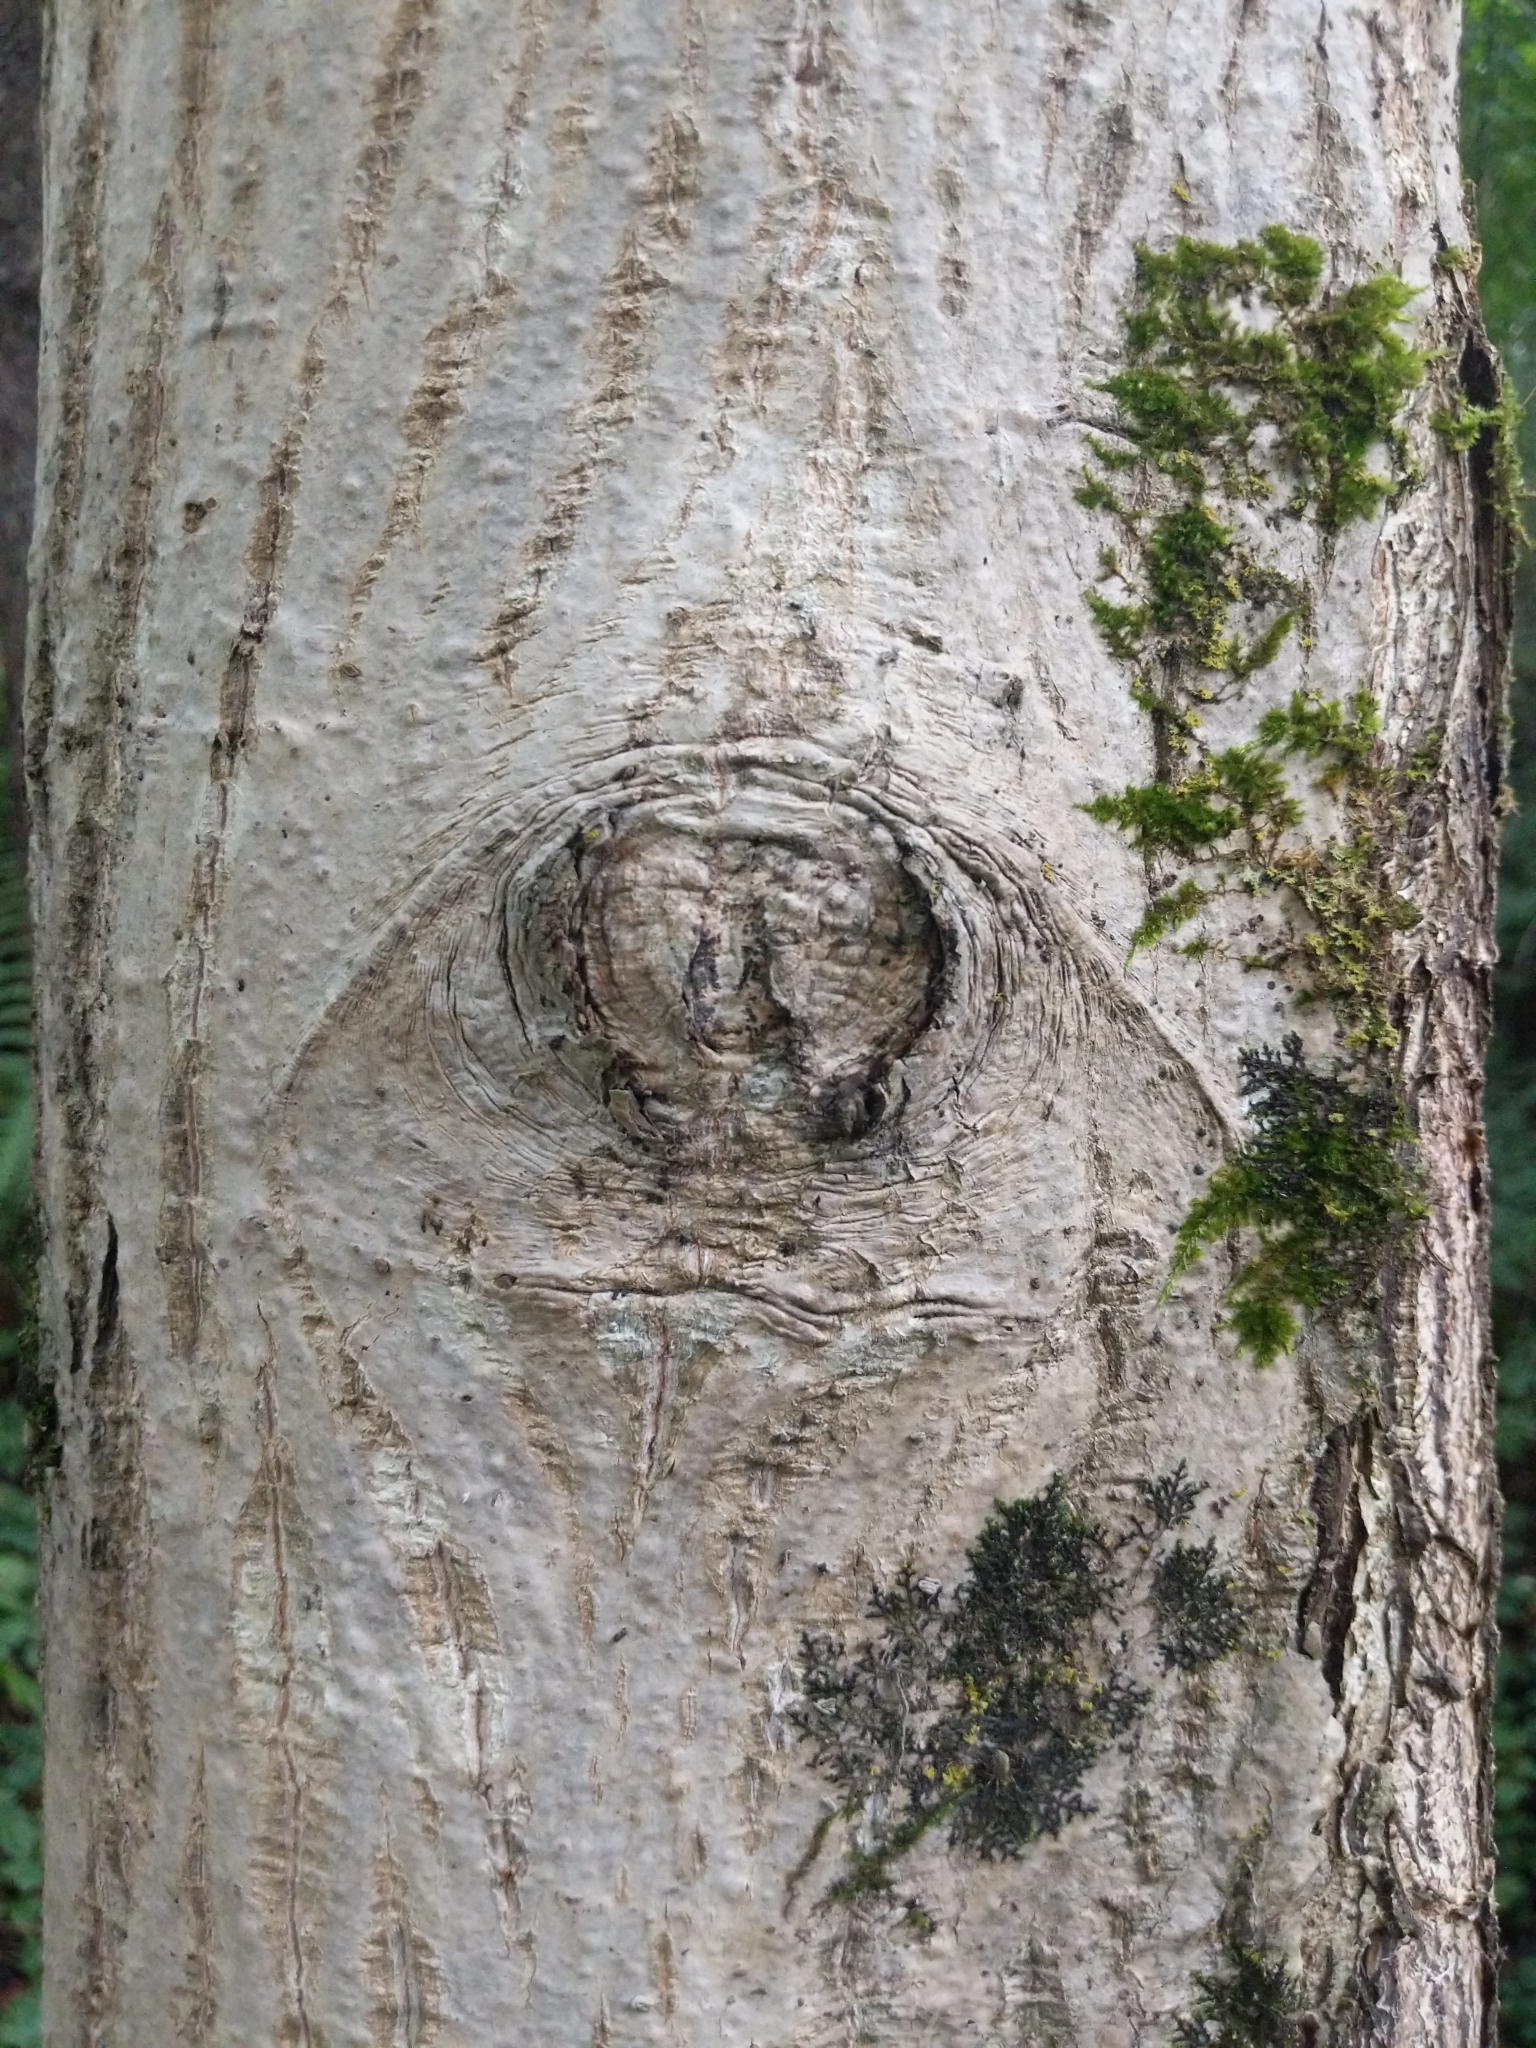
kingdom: Plantae
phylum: Tracheophyta
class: Magnoliopsida
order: Fagales
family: Juglandaceae
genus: Juglans
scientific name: Juglans regia
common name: Walnut
